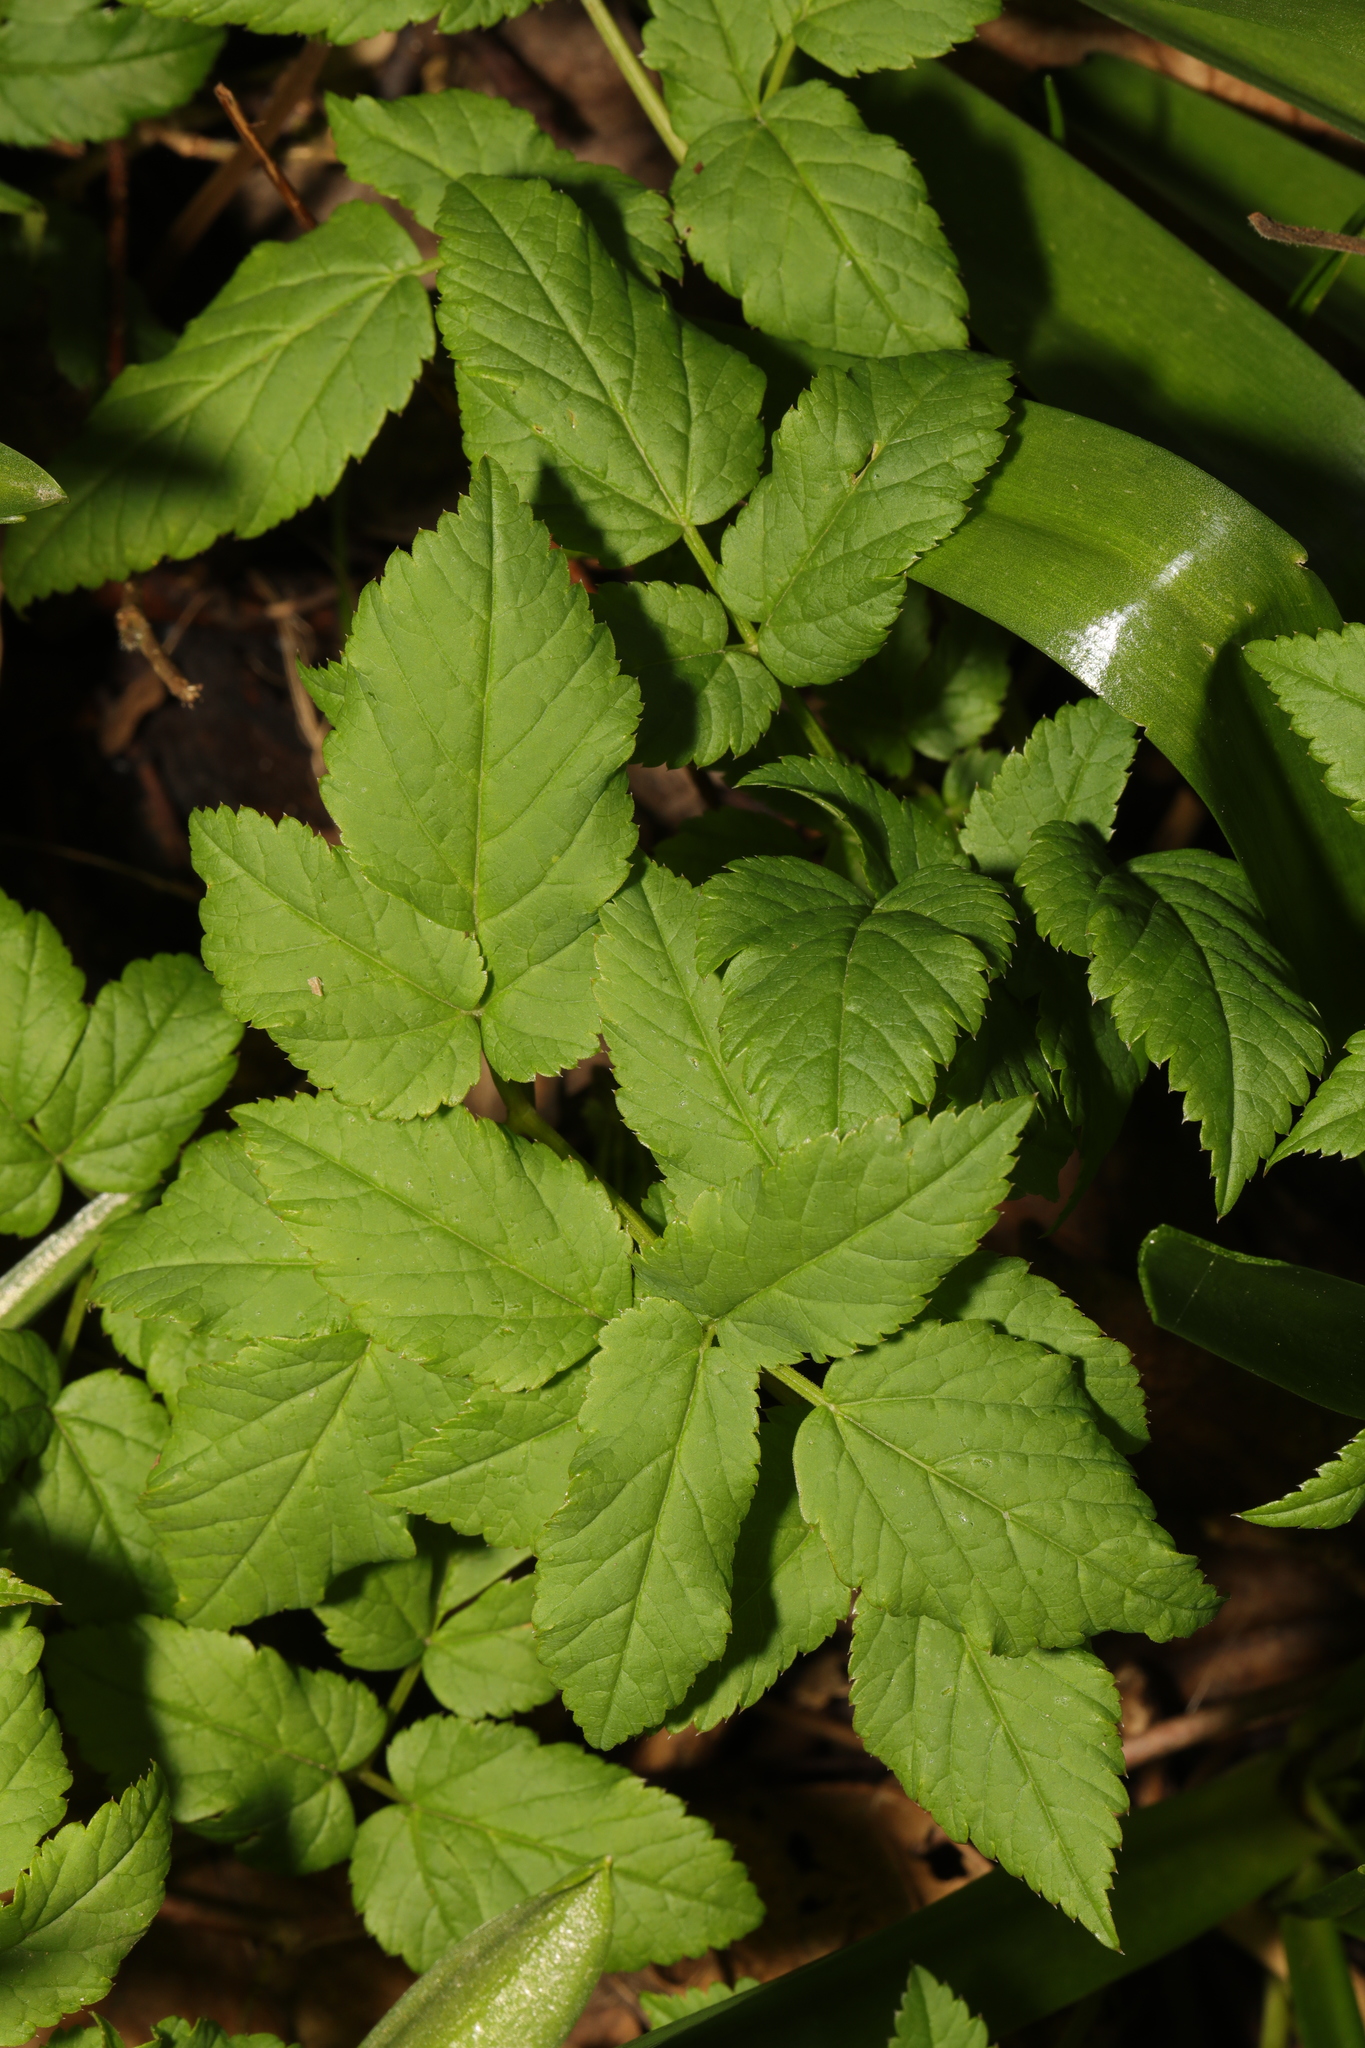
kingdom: Plantae
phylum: Tracheophyta
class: Magnoliopsida
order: Apiales
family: Apiaceae
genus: Aegopodium
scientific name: Aegopodium podagraria
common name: Ground-elder
